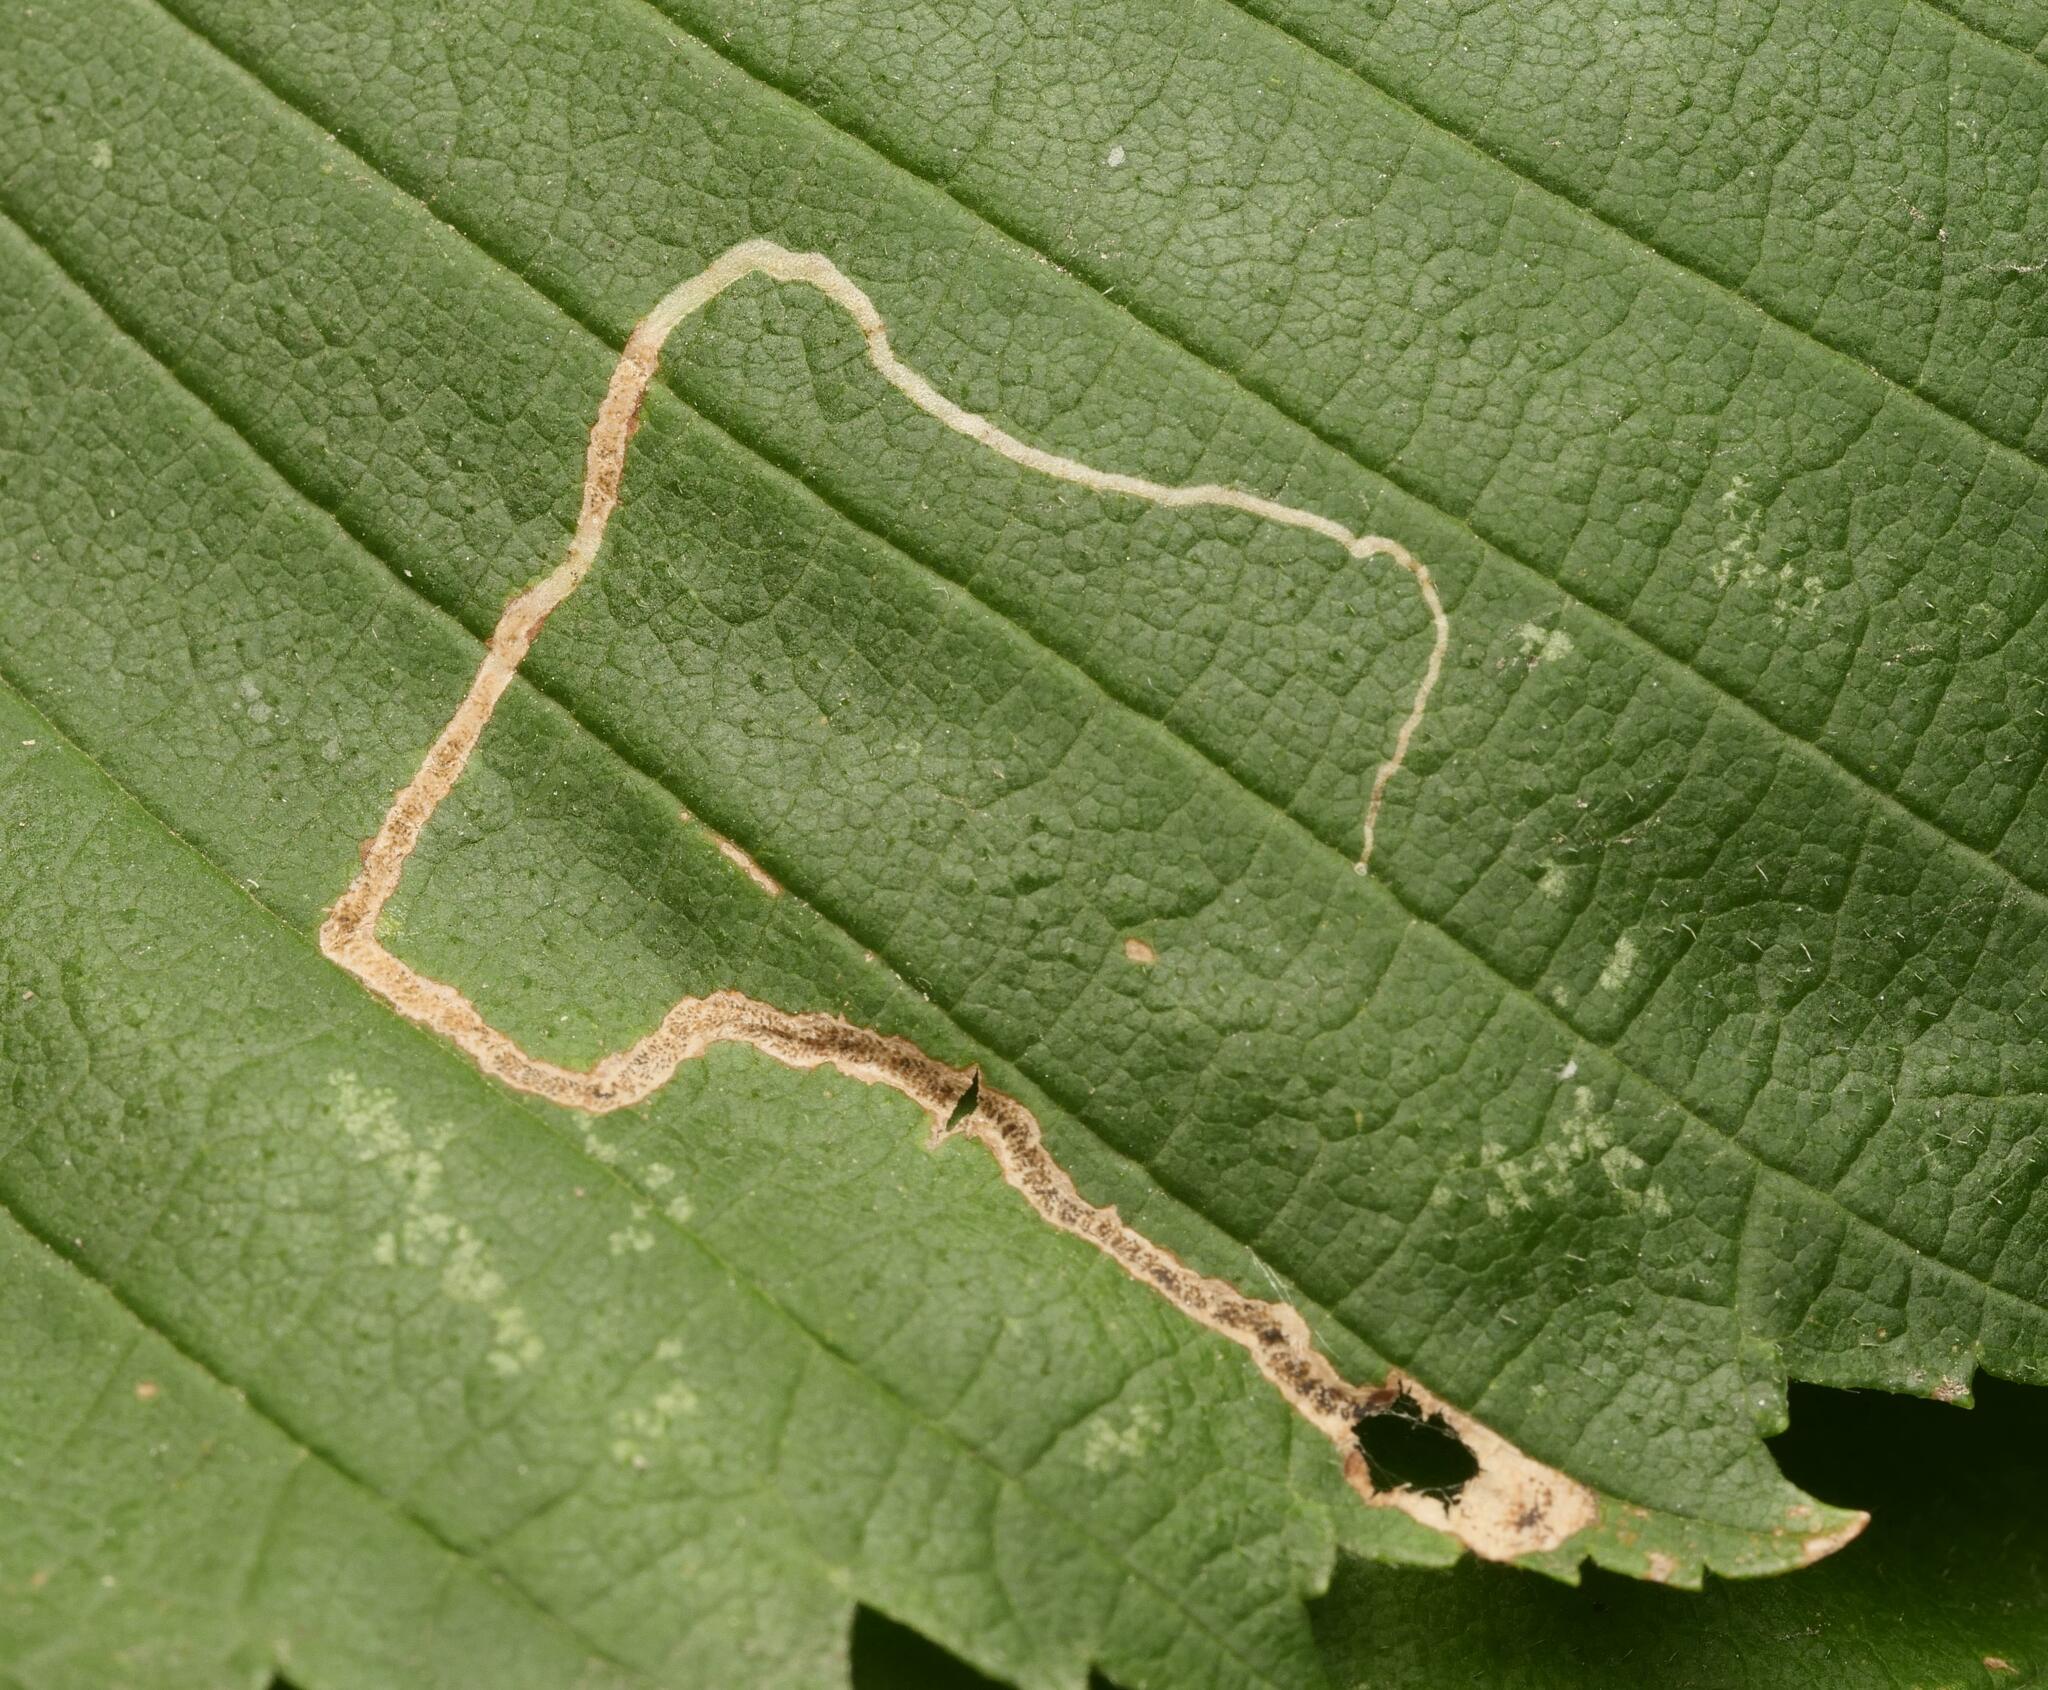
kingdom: Animalia
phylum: Arthropoda
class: Insecta
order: Lepidoptera
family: Nepticulidae
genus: Stigmella
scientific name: Stigmella lemniscella
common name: Red elm pigmy
